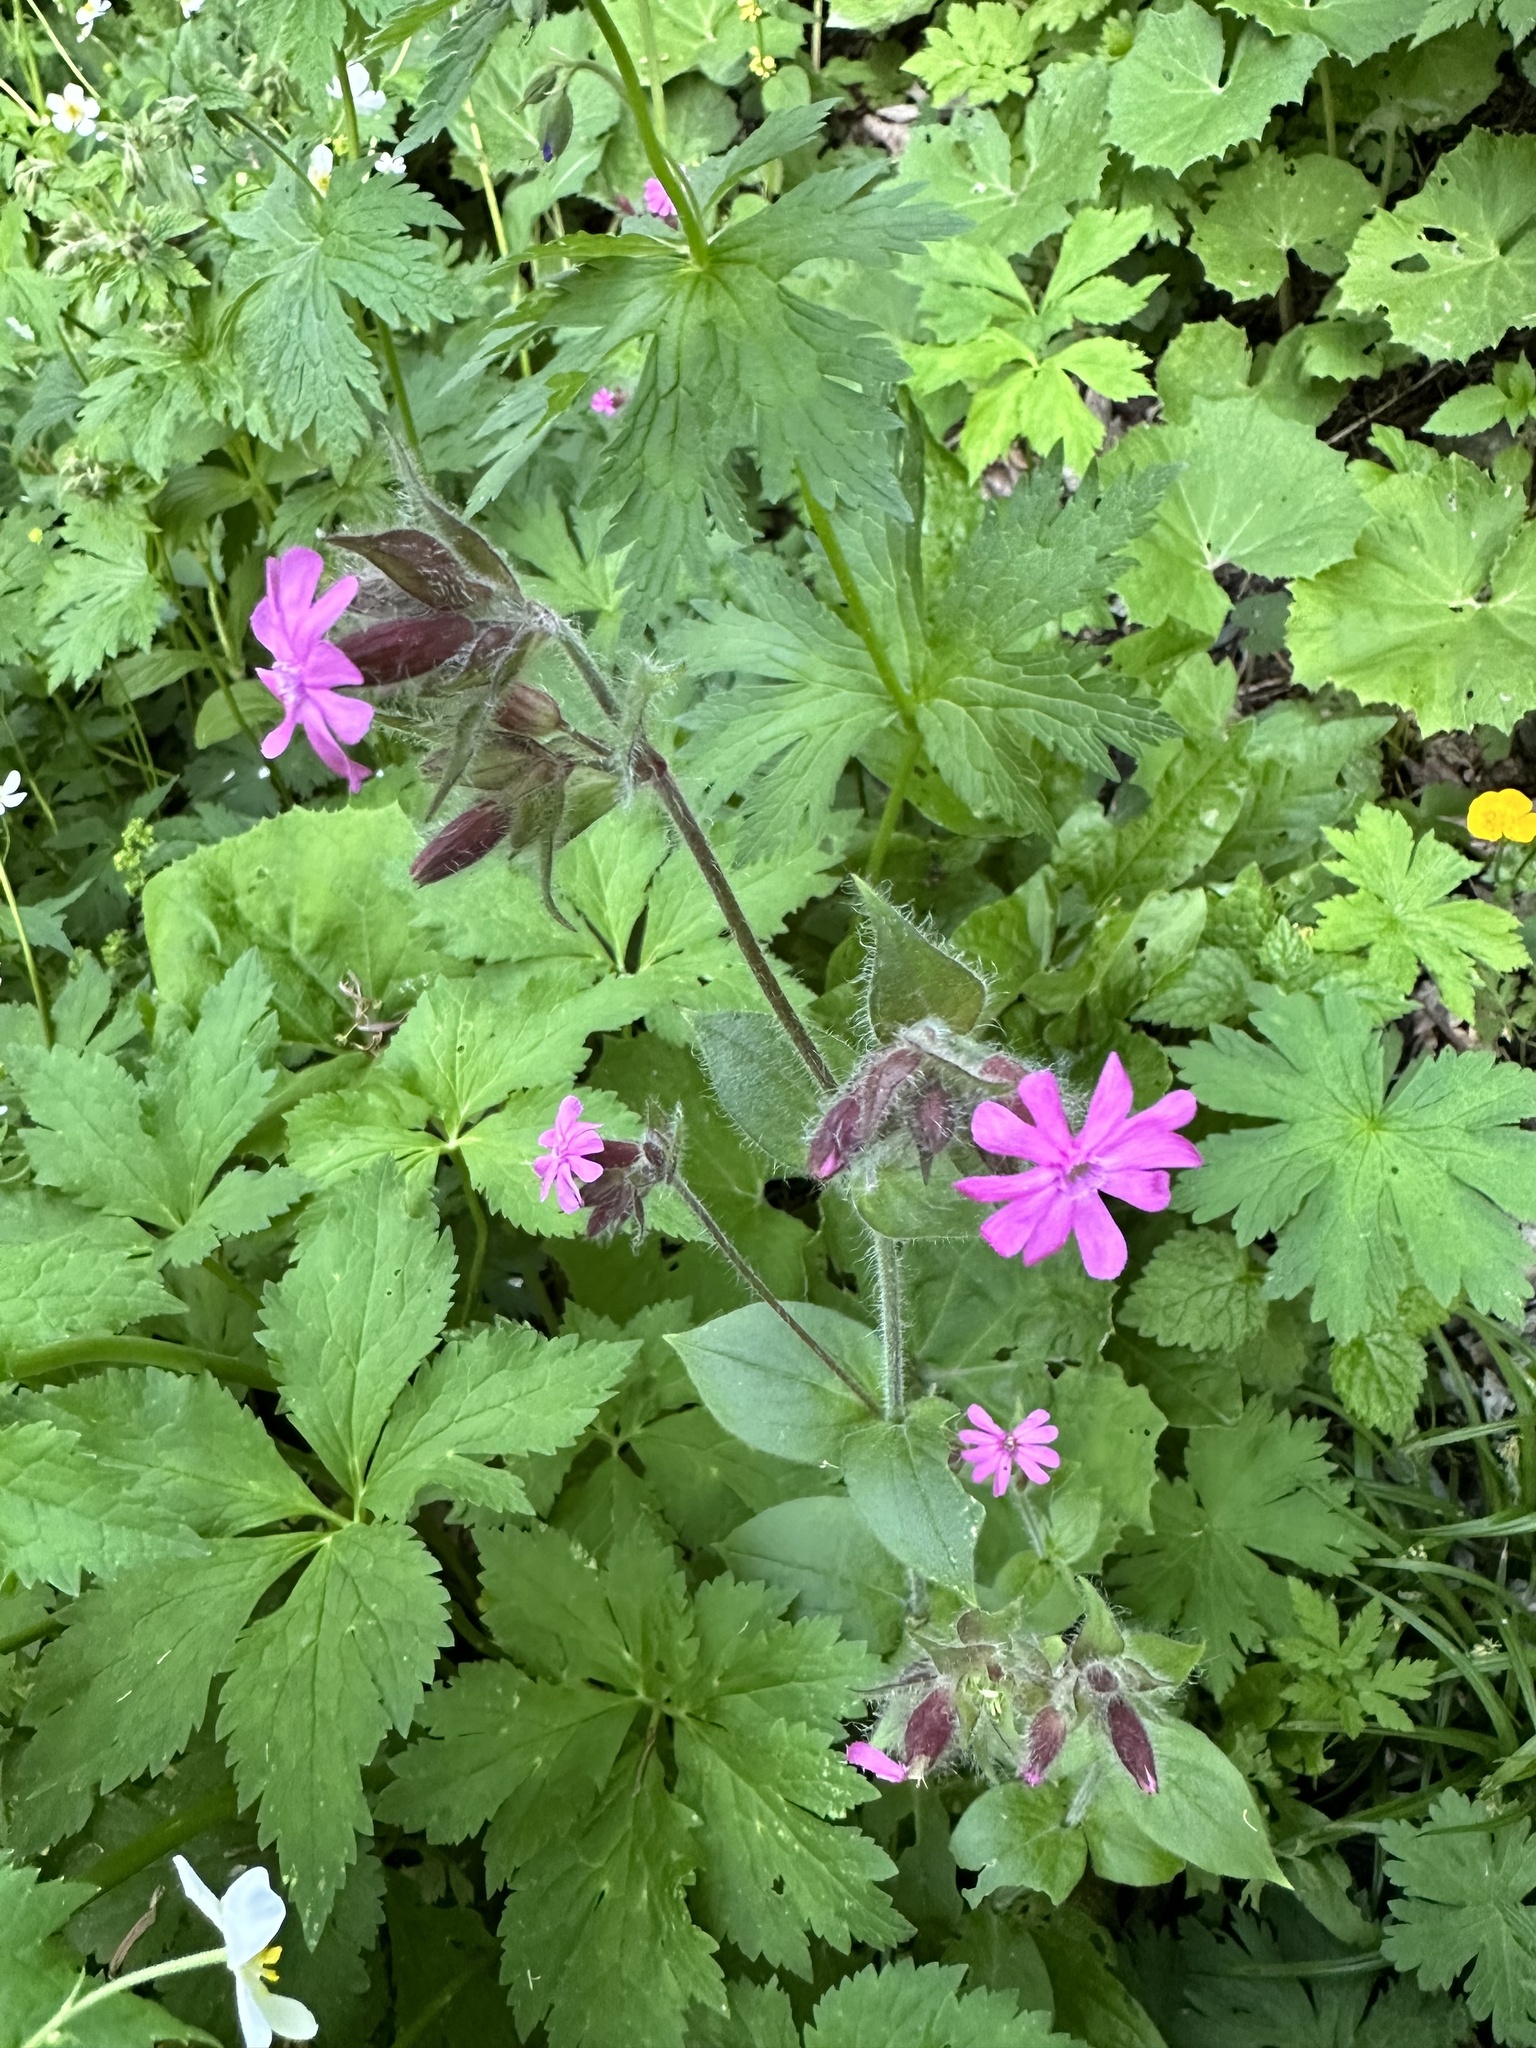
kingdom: Plantae
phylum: Tracheophyta
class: Magnoliopsida
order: Caryophyllales
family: Caryophyllaceae
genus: Silene
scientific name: Silene dioica
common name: Red campion
